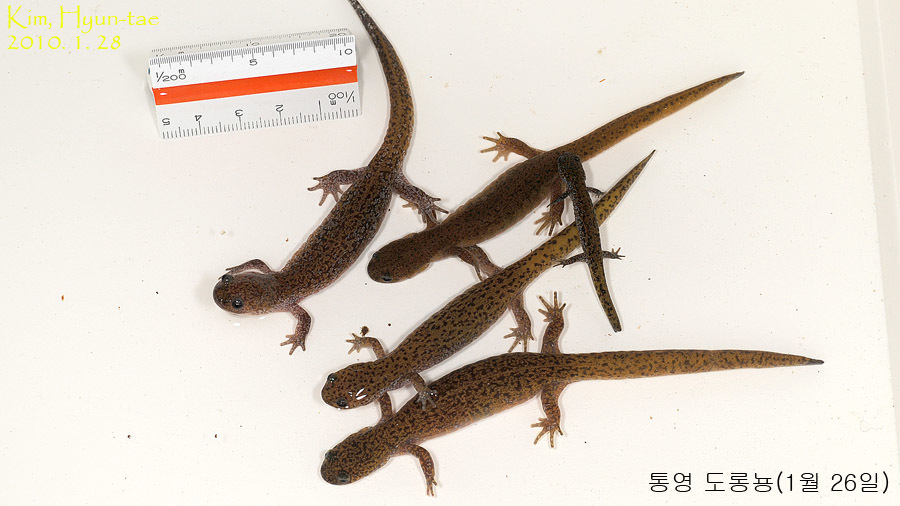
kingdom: Animalia
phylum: Chordata
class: Amphibia
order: Caudata
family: Hynobiidae
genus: Hynobius
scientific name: Hynobius notialis
